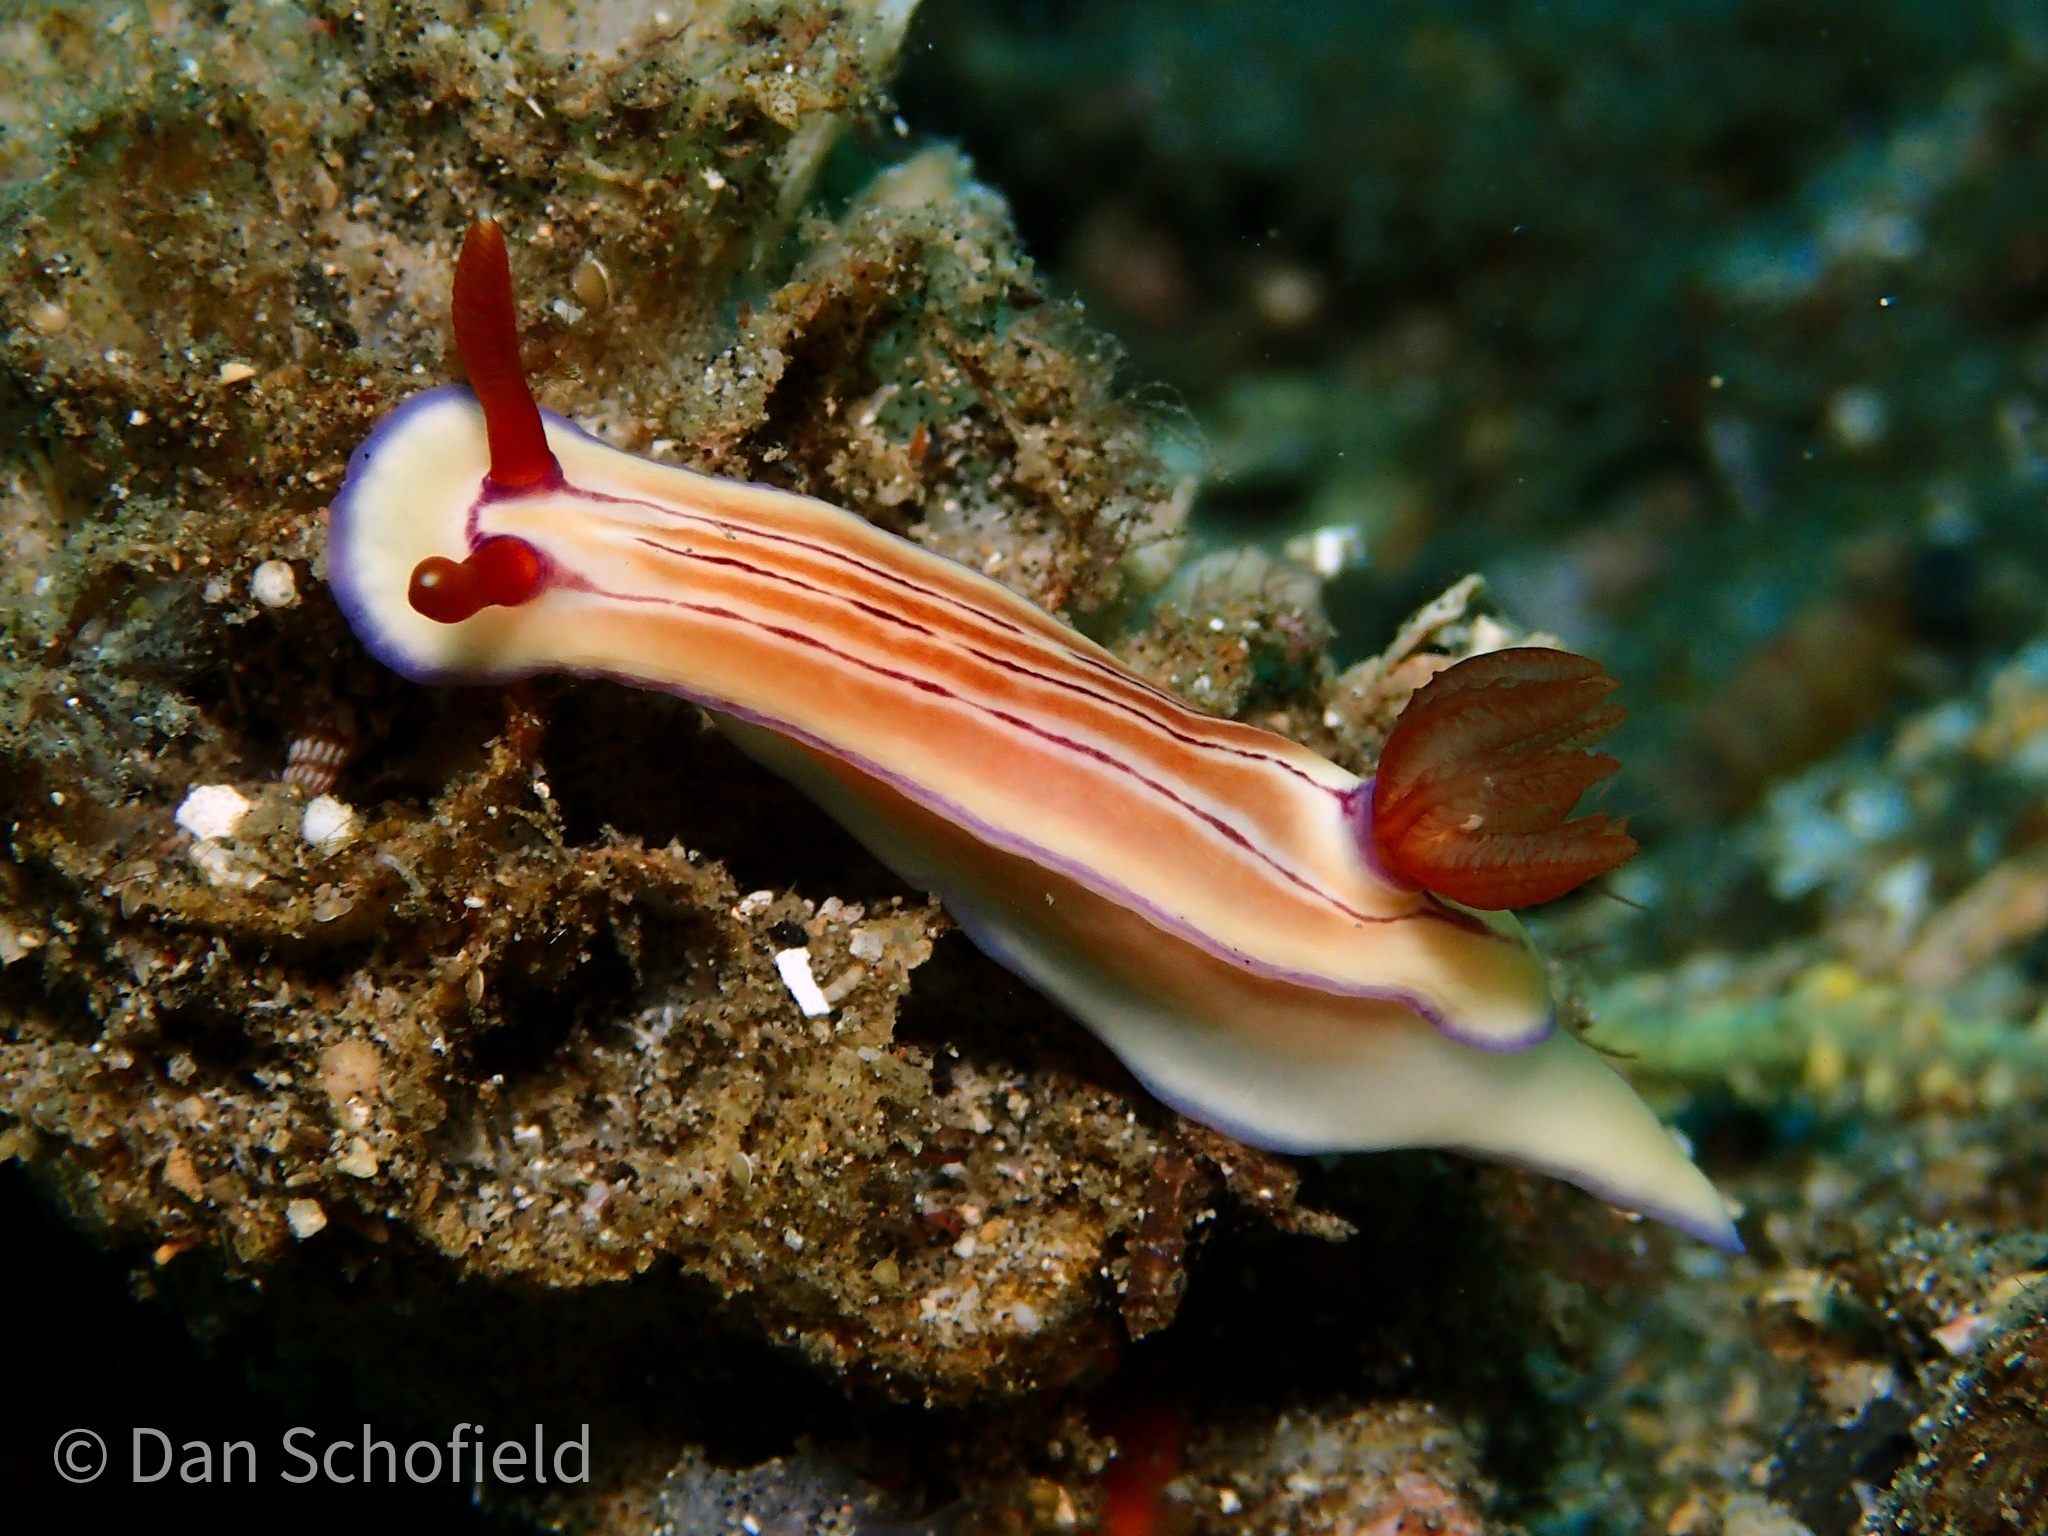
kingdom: Animalia
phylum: Mollusca
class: Gastropoda
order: Nudibranchia
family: Chromodorididae
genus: Hypselodoris
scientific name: Hypselodoris emma
